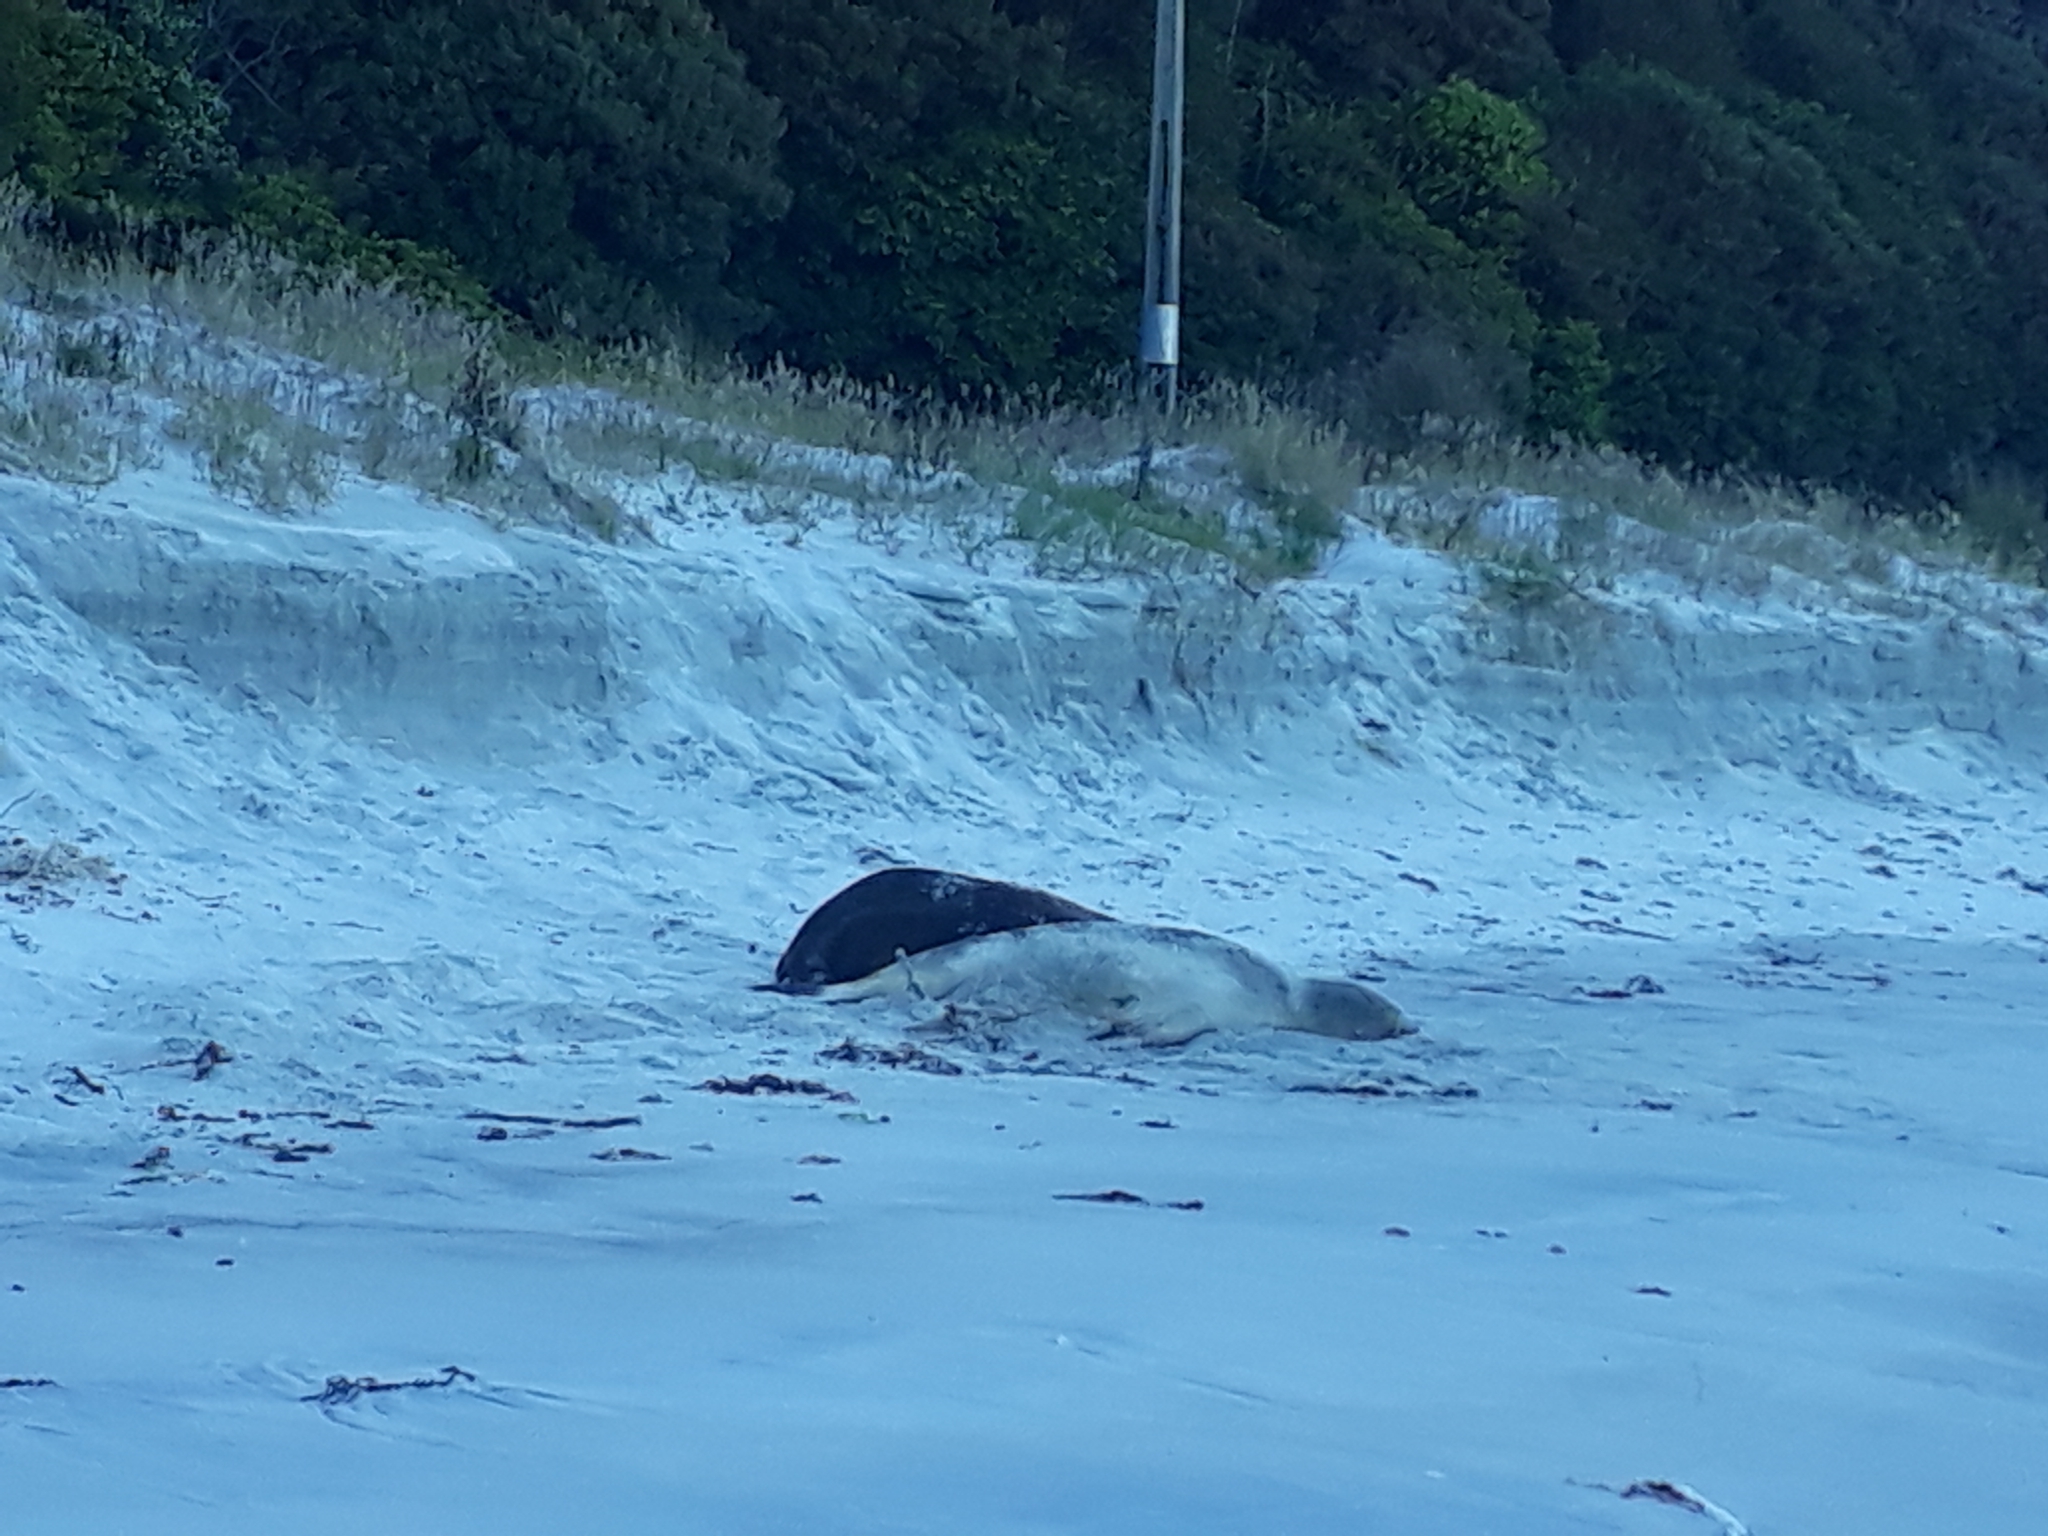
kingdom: Animalia
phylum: Chordata
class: Mammalia
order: Carnivora
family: Otariidae
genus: Phocarctos
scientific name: Phocarctos hookeri
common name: New zealand sea lion
